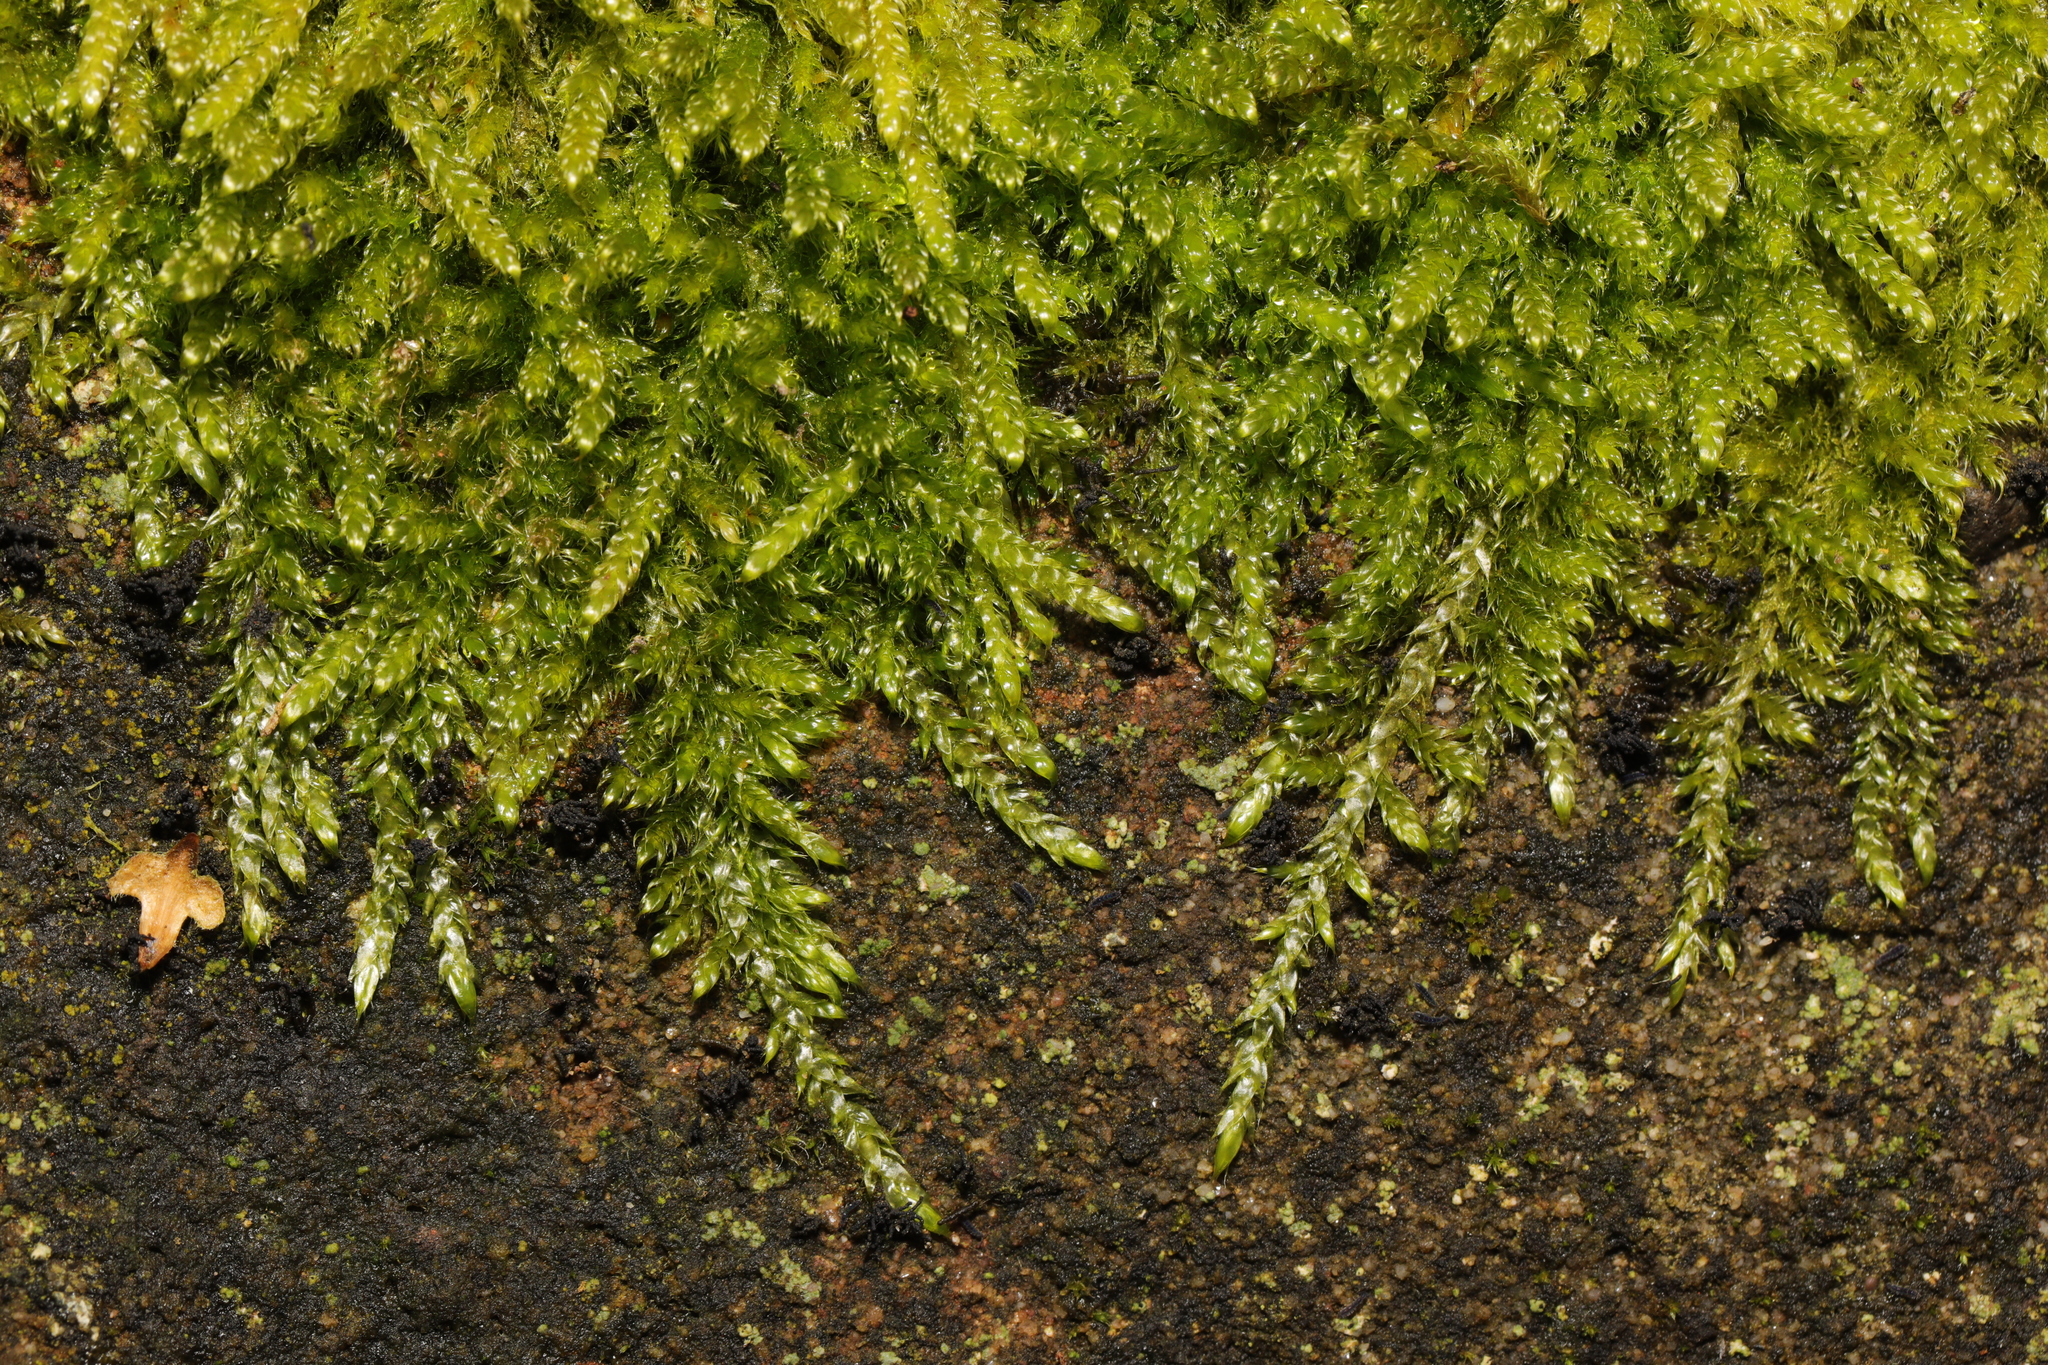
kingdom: Plantae
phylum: Bryophyta
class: Bryopsida
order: Hypnales
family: Hypnaceae
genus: Hypnum
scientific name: Hypnum cupressiforme
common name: Cypress-leaved plait-moss
